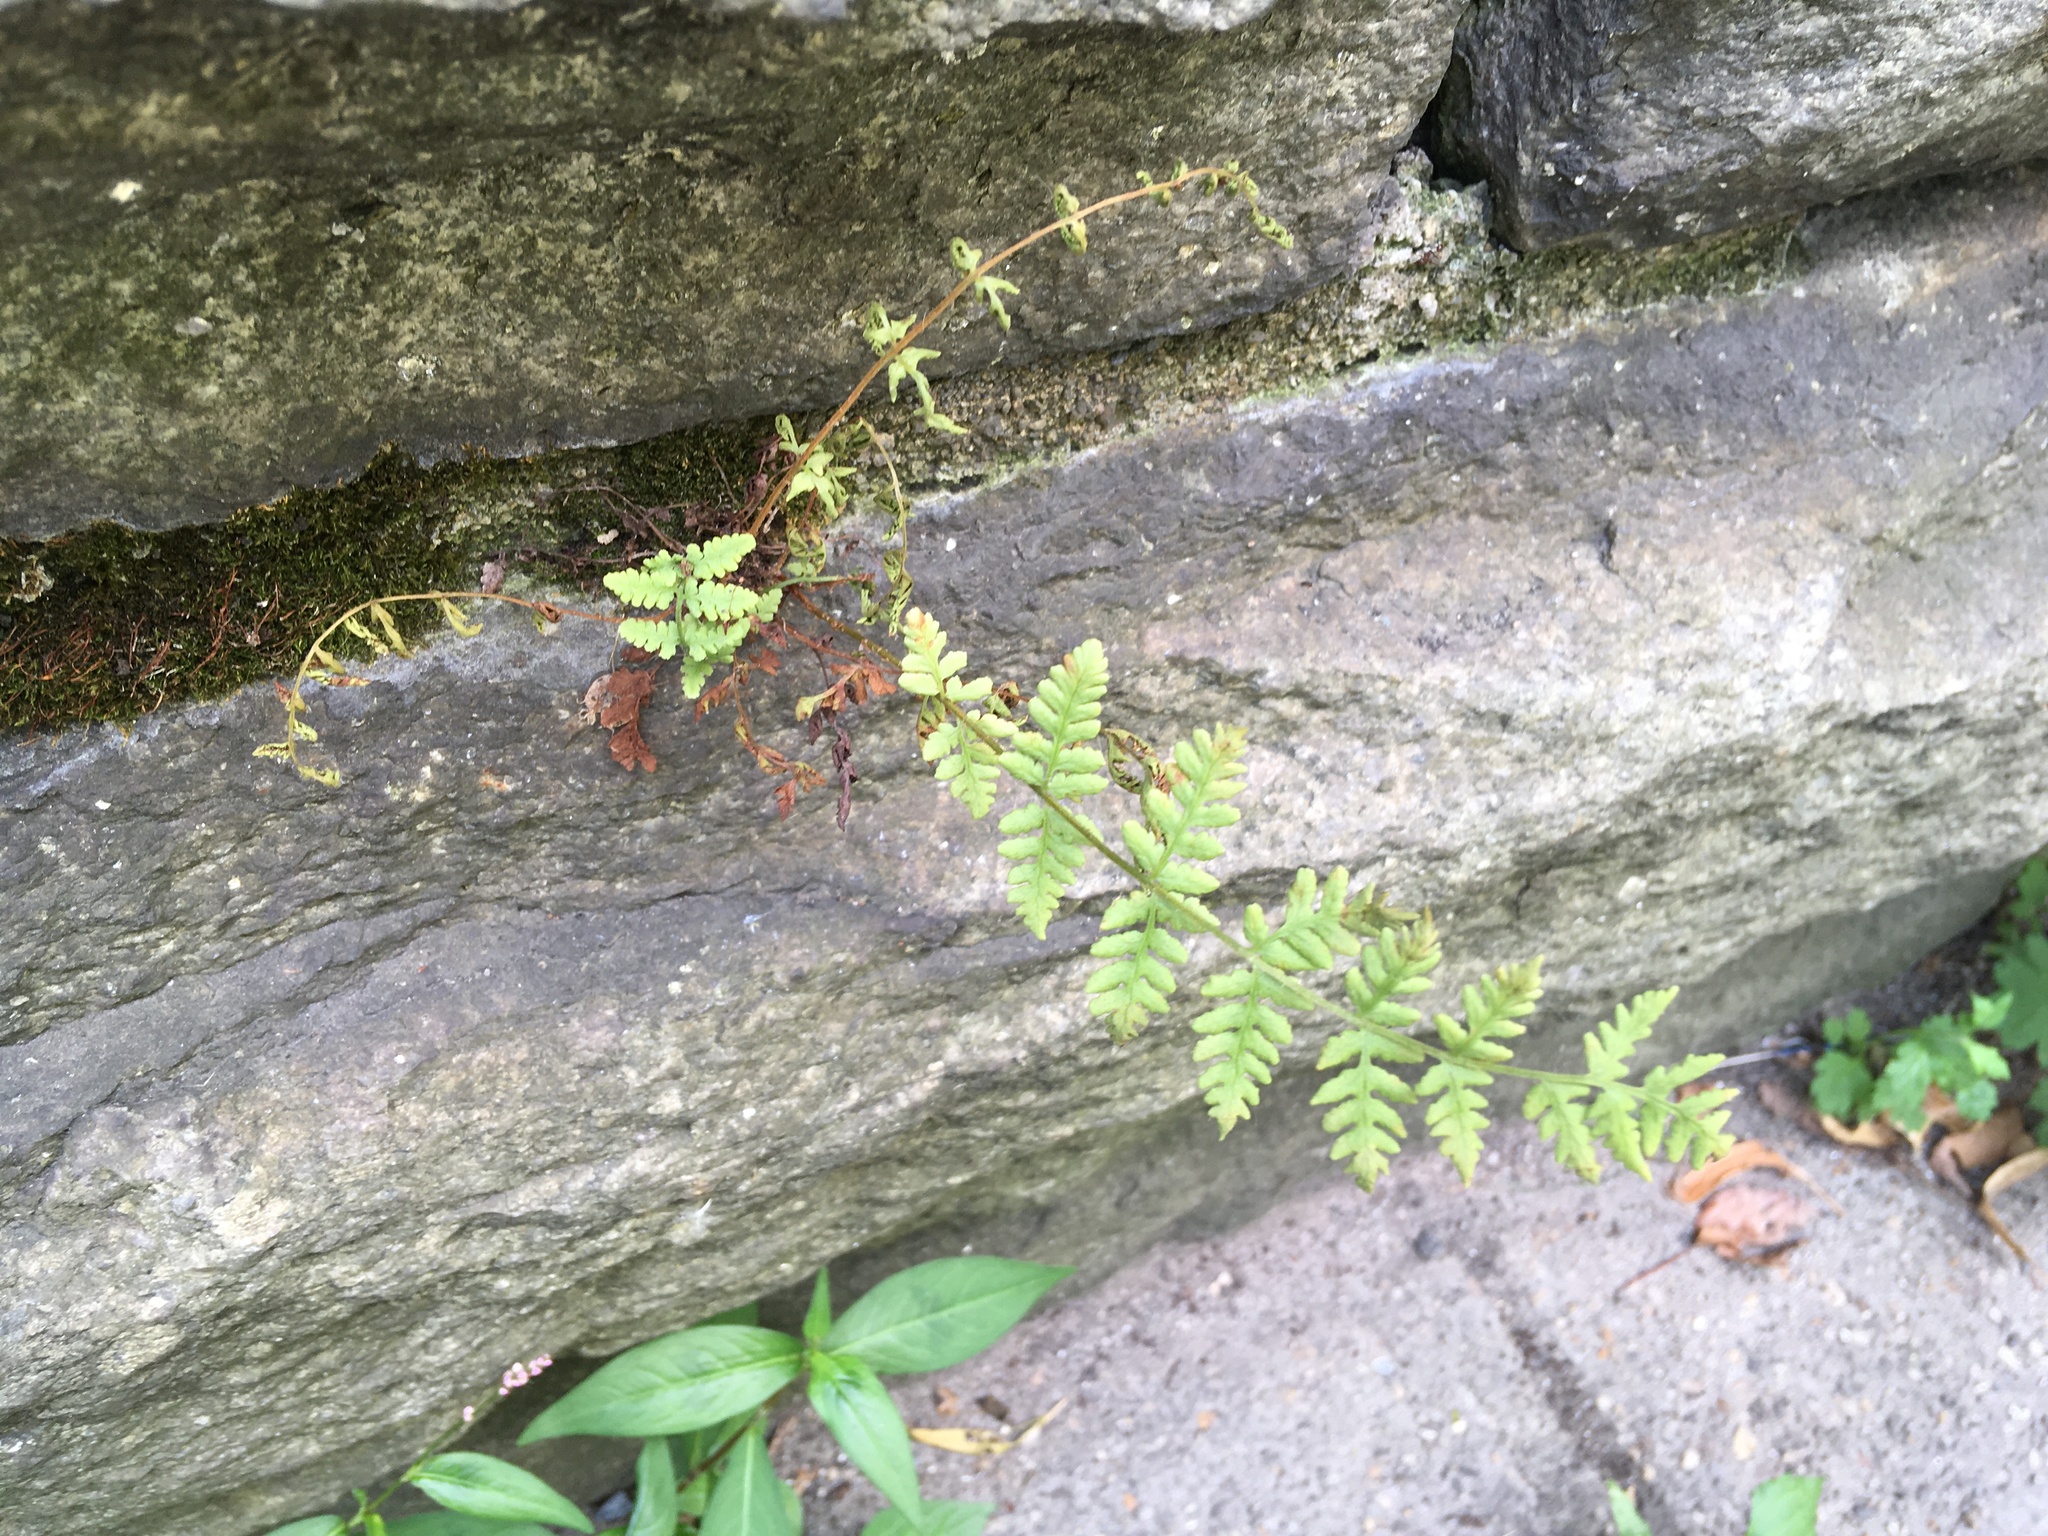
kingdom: Plantae
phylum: Tracheophyta
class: Polypodiopsida
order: Polypodiales
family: Woodsiaceae
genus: Physematium
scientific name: Physematium obtusum
